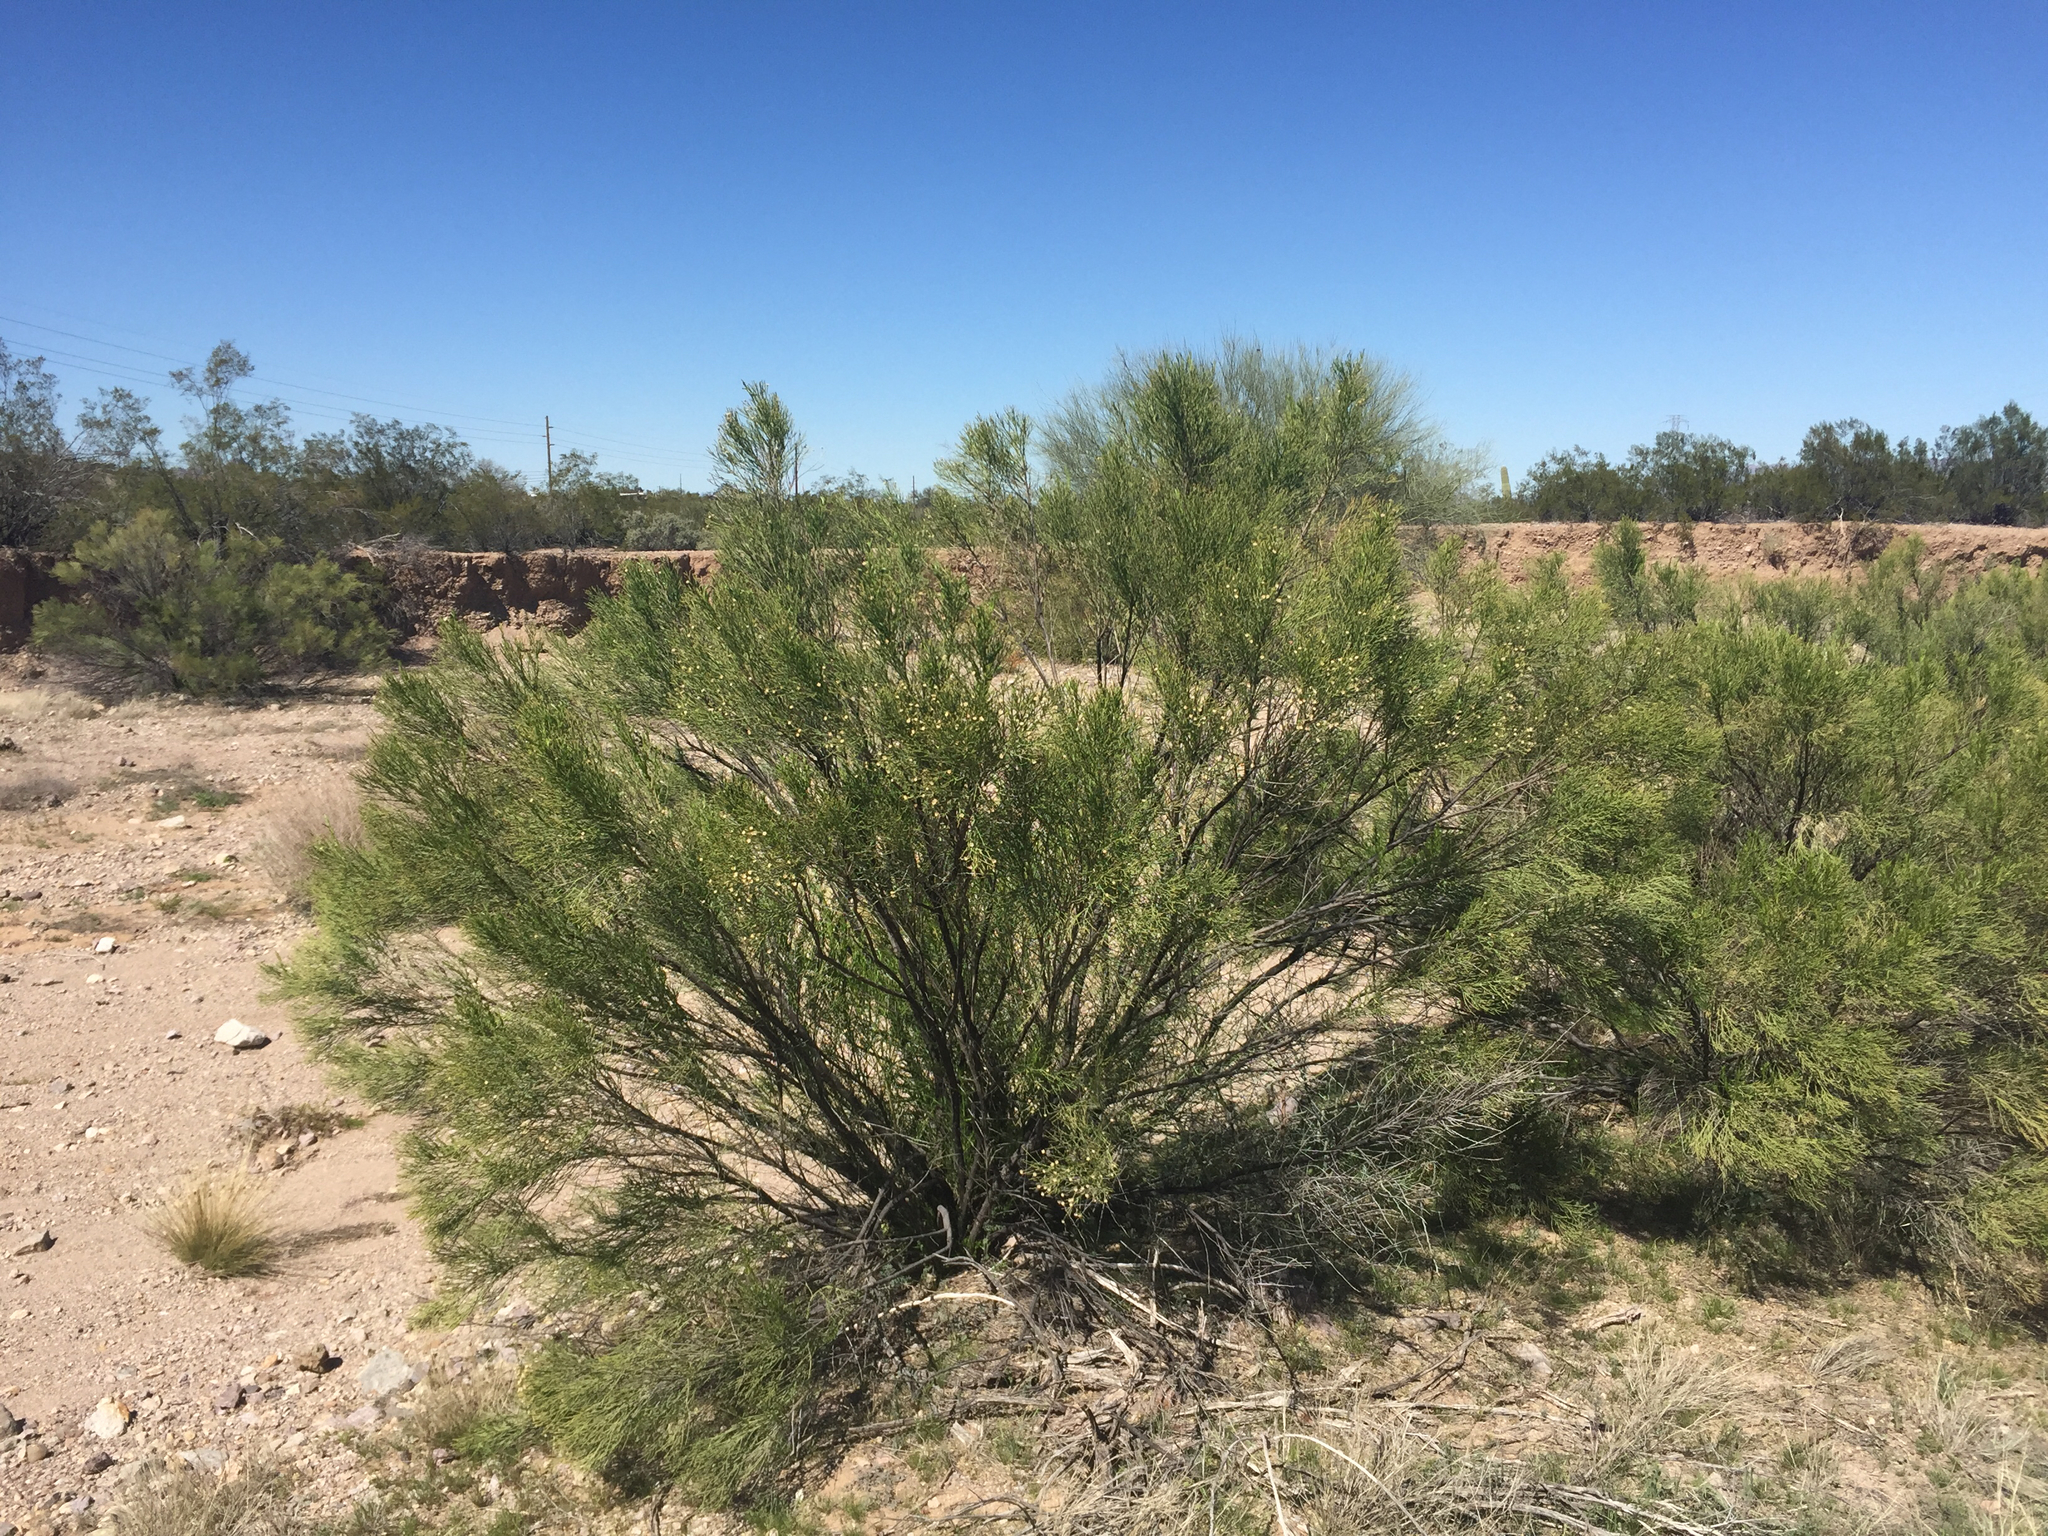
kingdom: Plantae
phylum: Tracheophyta
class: Magnoliopsida
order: Asterales
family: Asteraceae
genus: Baccharis
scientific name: Baccharis sarothroides
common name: Desert-broom
